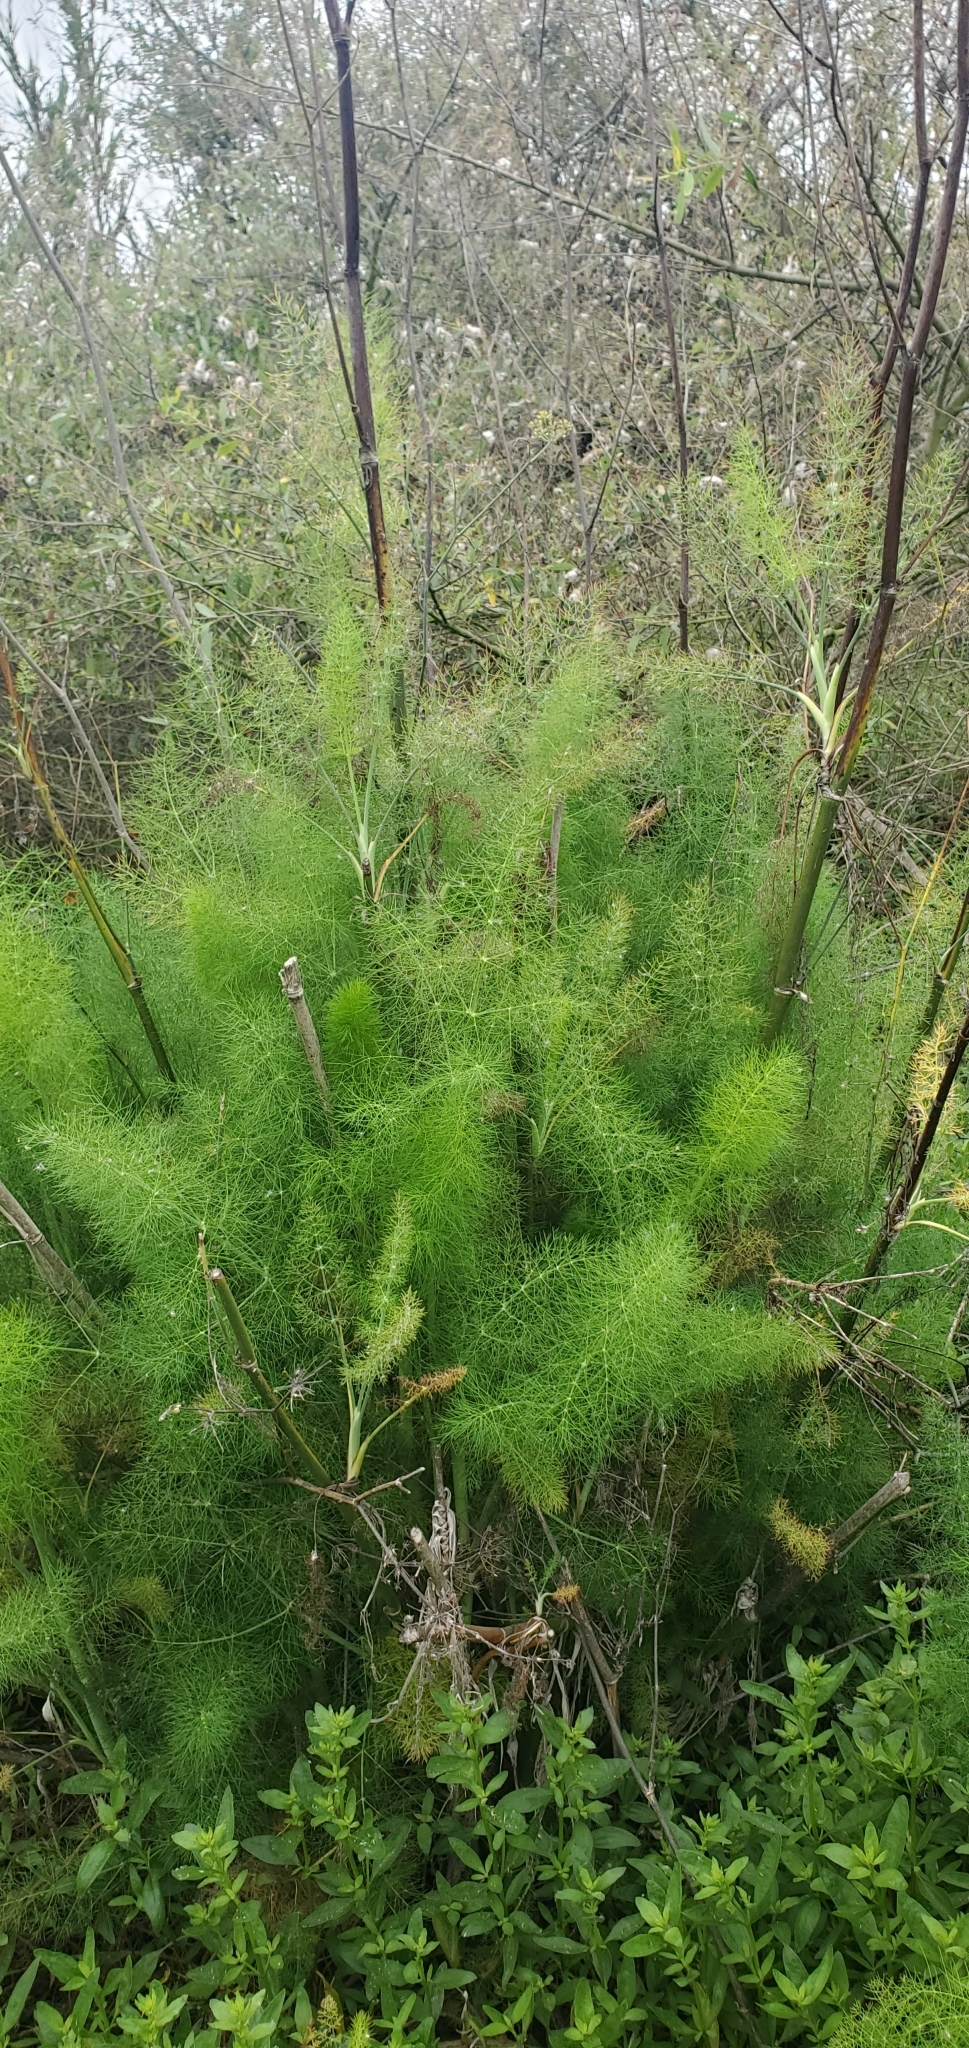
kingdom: Plantae
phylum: Tracheophyta
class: Magnoliopsida
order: Apiales
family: Apiaceae
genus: Foeniculum
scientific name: Foeniculum vulgare
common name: Fennel
